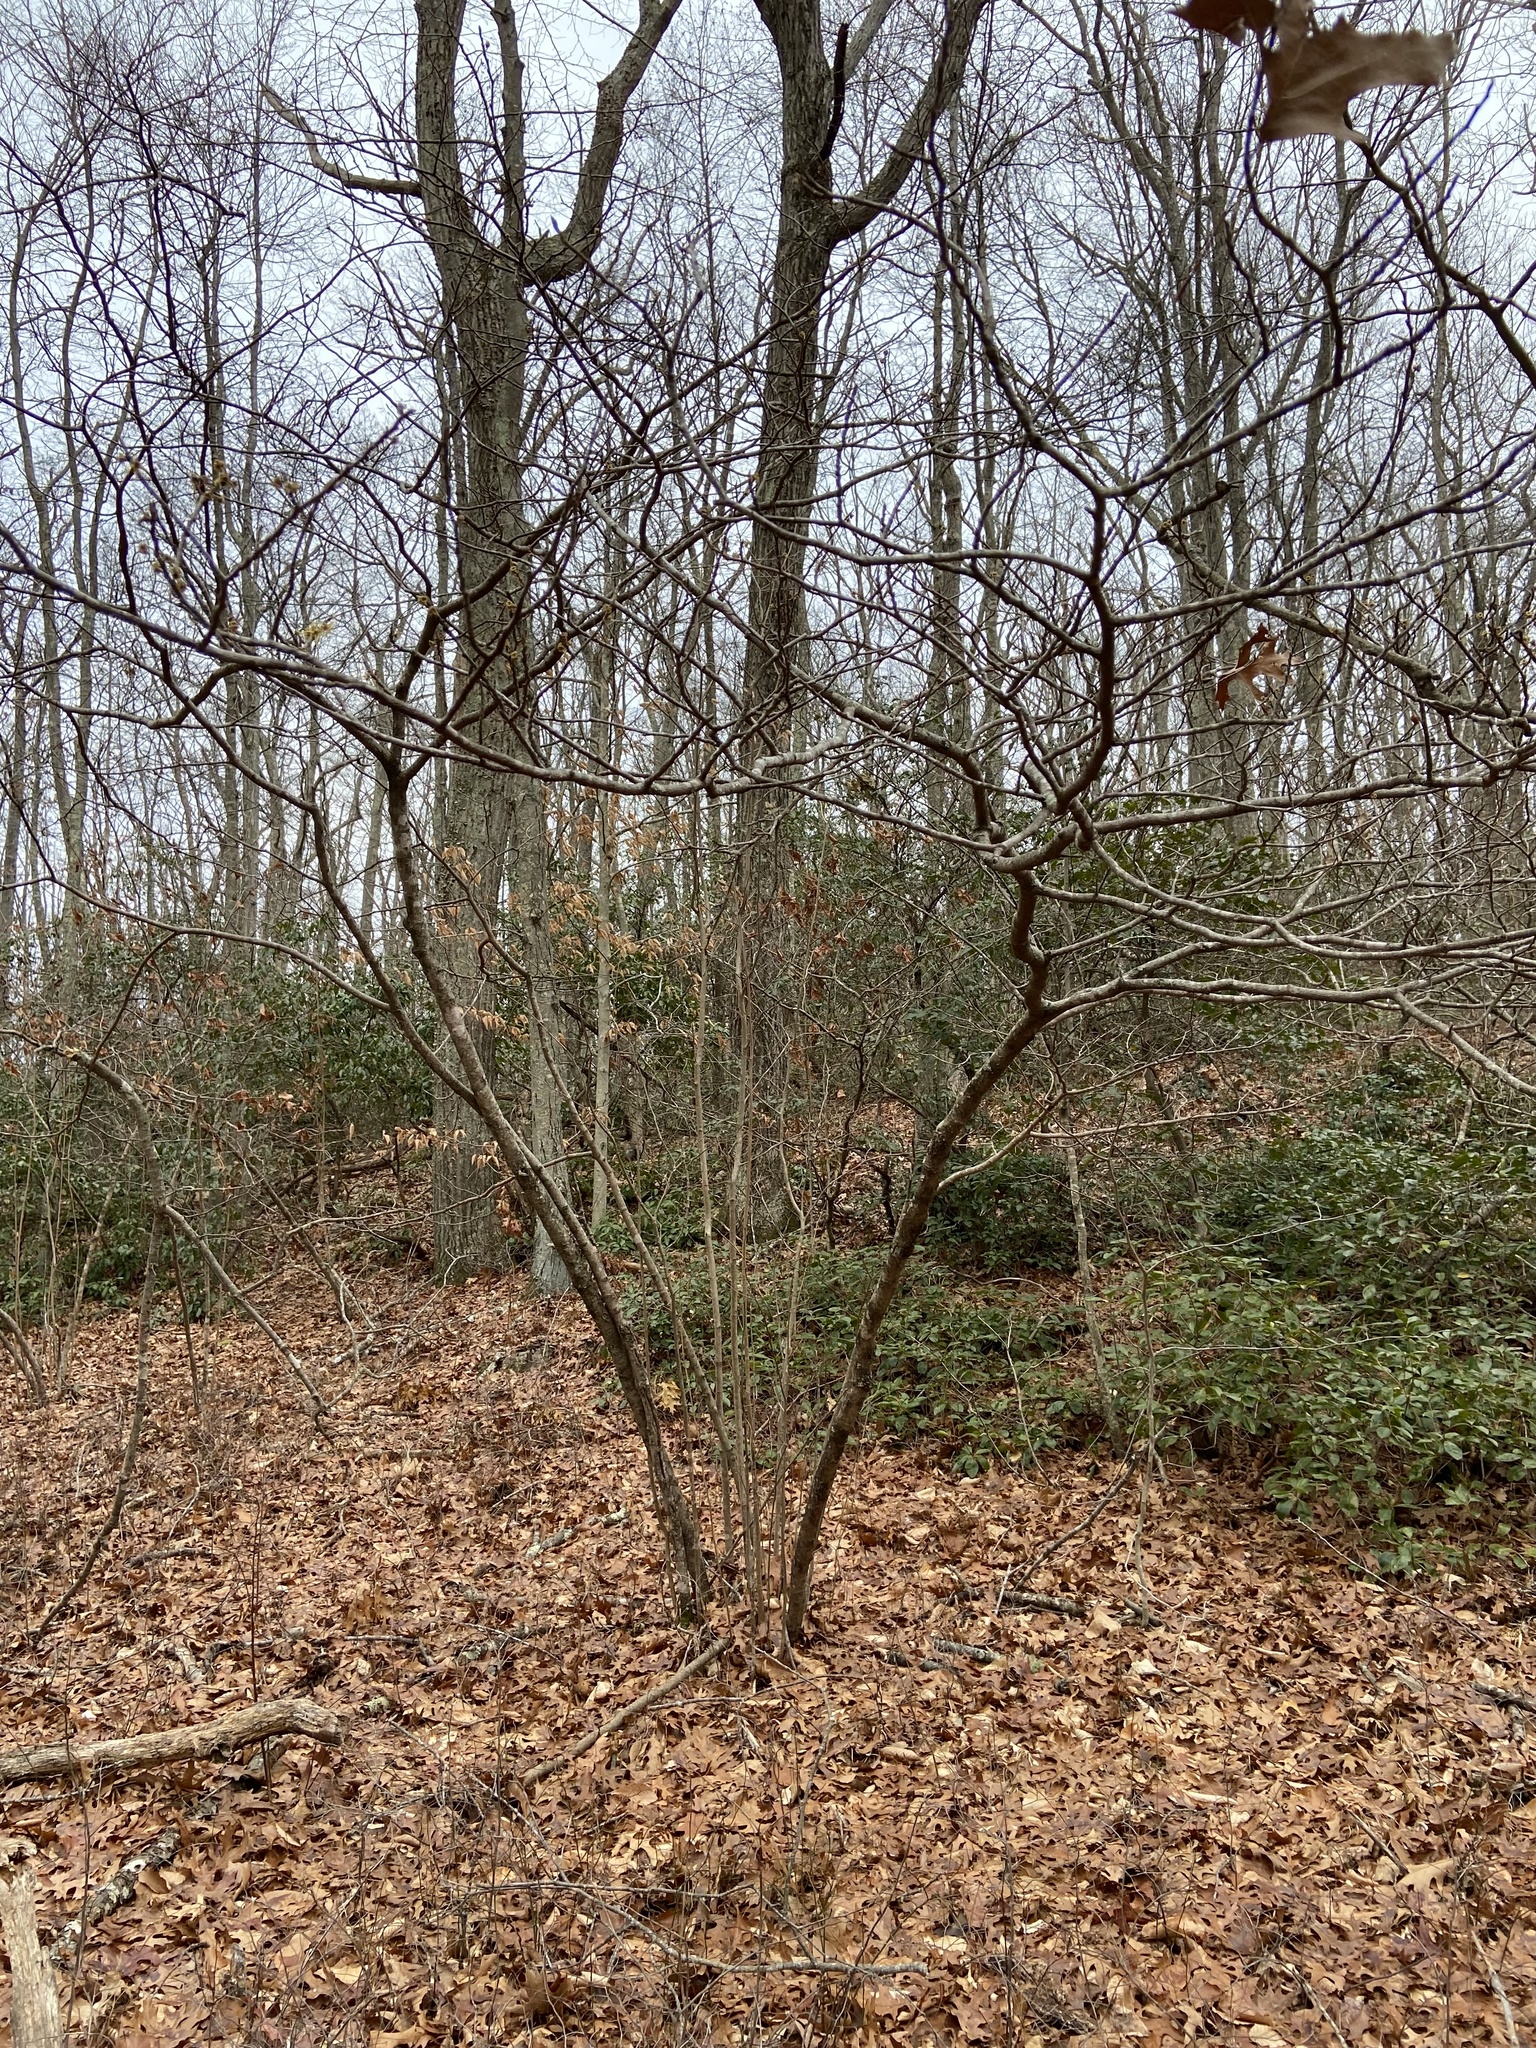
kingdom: Plantae
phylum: Tracheophyta
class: Magnoliopsida
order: Saxifragales
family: Hamamelidaceae
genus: Hamamelis
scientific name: Hamamelis virginiana
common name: Witch-hazel
